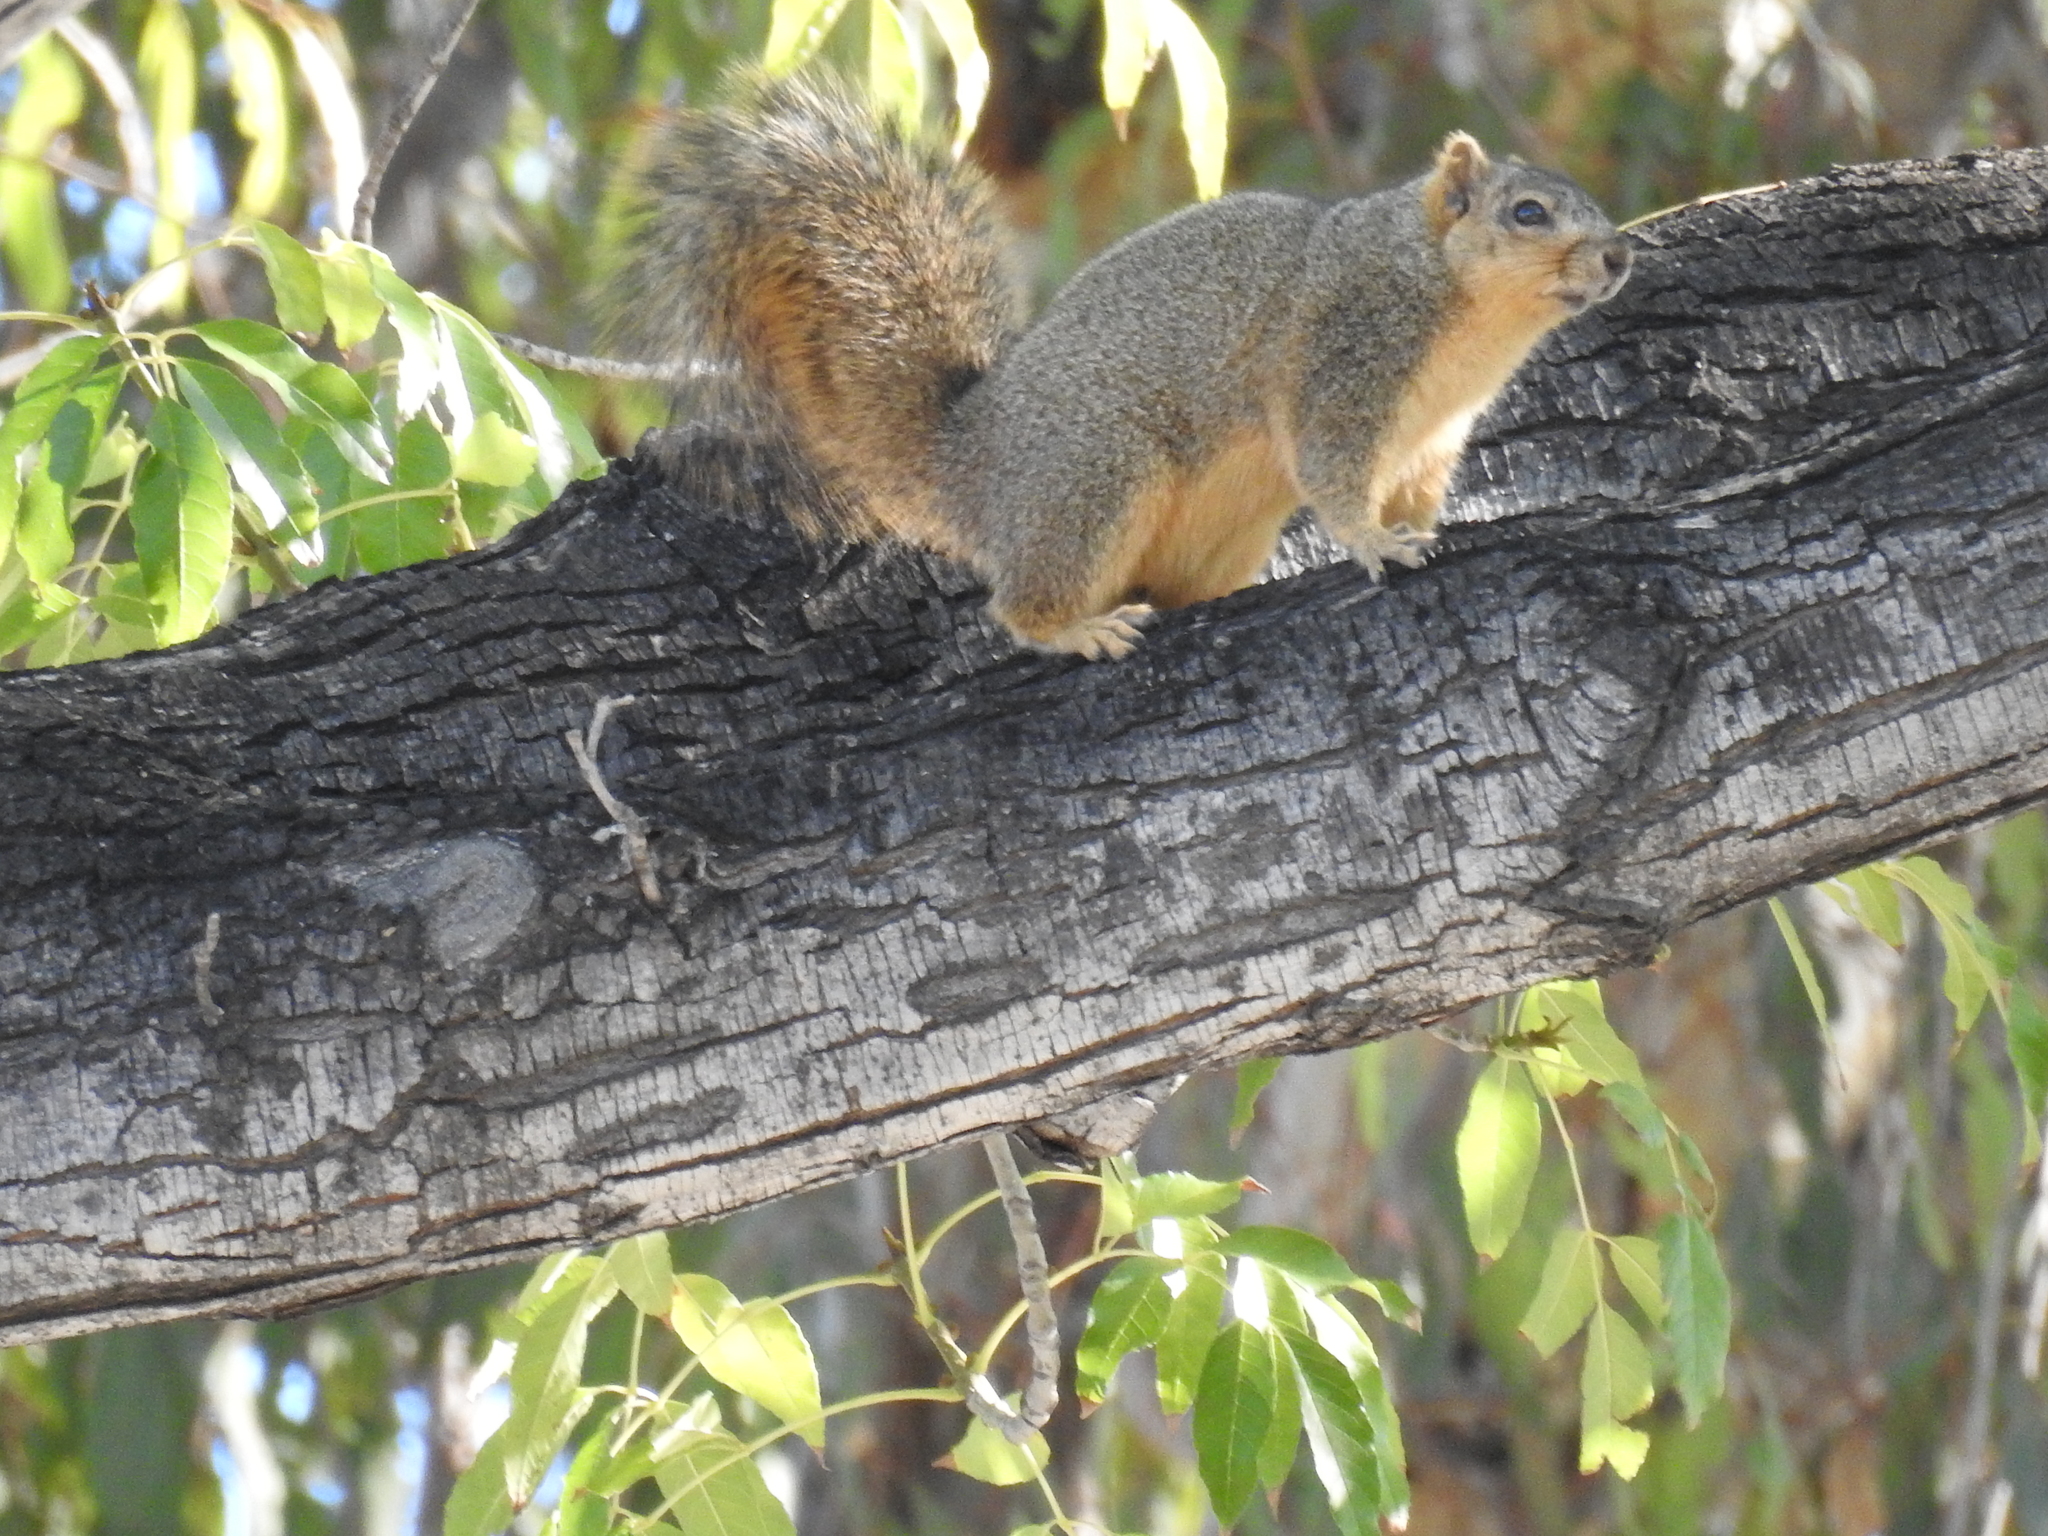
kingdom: Animalia
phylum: Chordata
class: Mammalia
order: Rodentia
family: Sciuridae
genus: Sciurus
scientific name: Sciurus niger
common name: Fox squirrel
